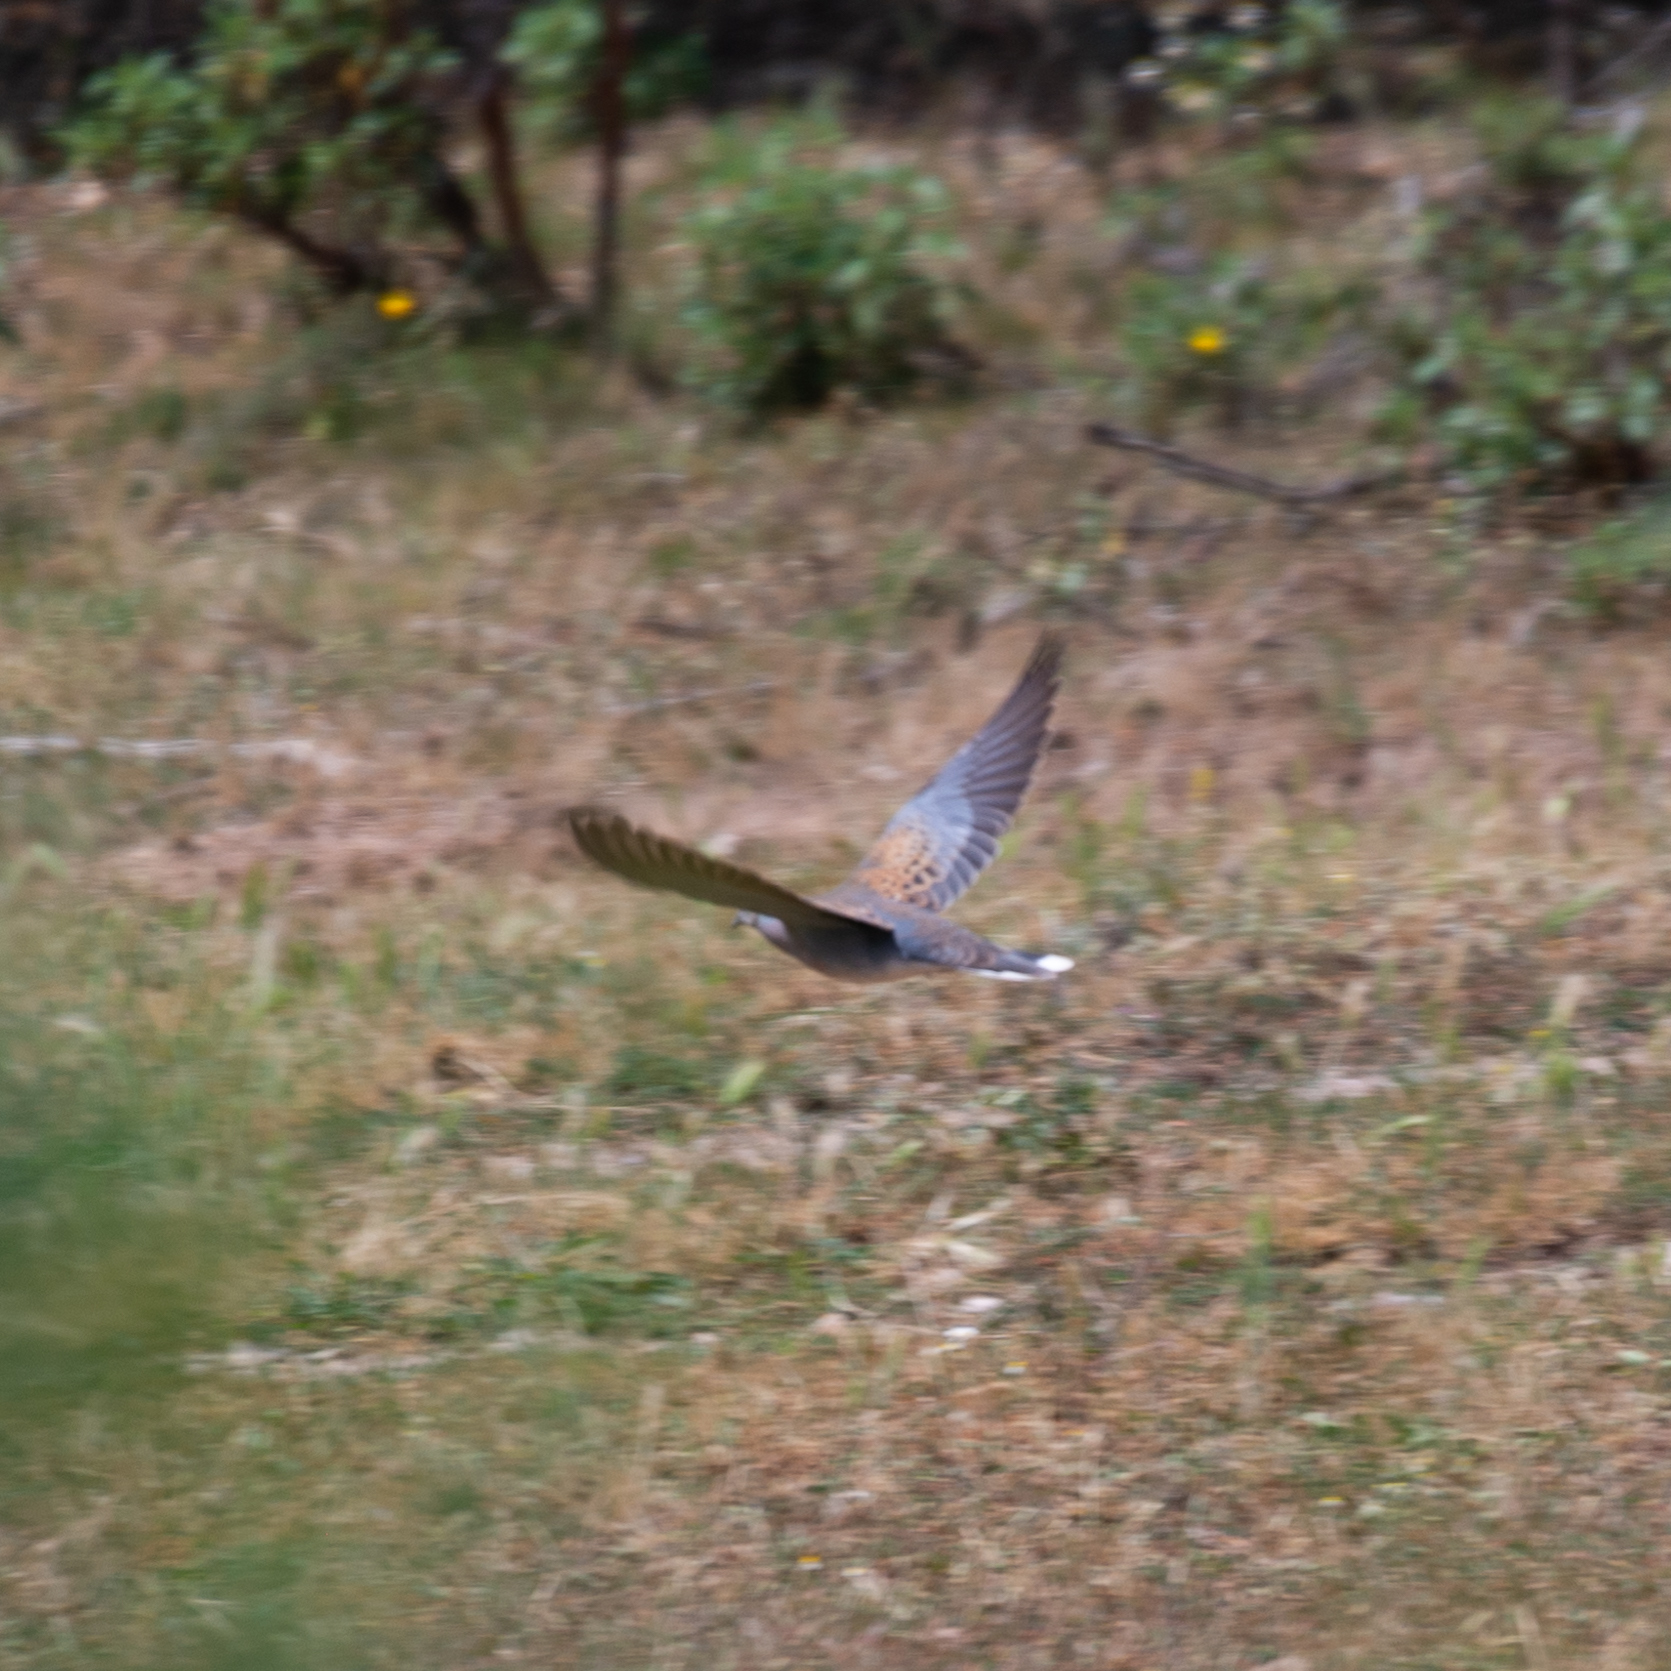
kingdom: Animalia
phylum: Chordata
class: Aves
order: Columbiformes
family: Columbidae
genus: Streptopelia
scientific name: Streptopelia turtur
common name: European turtle dove
